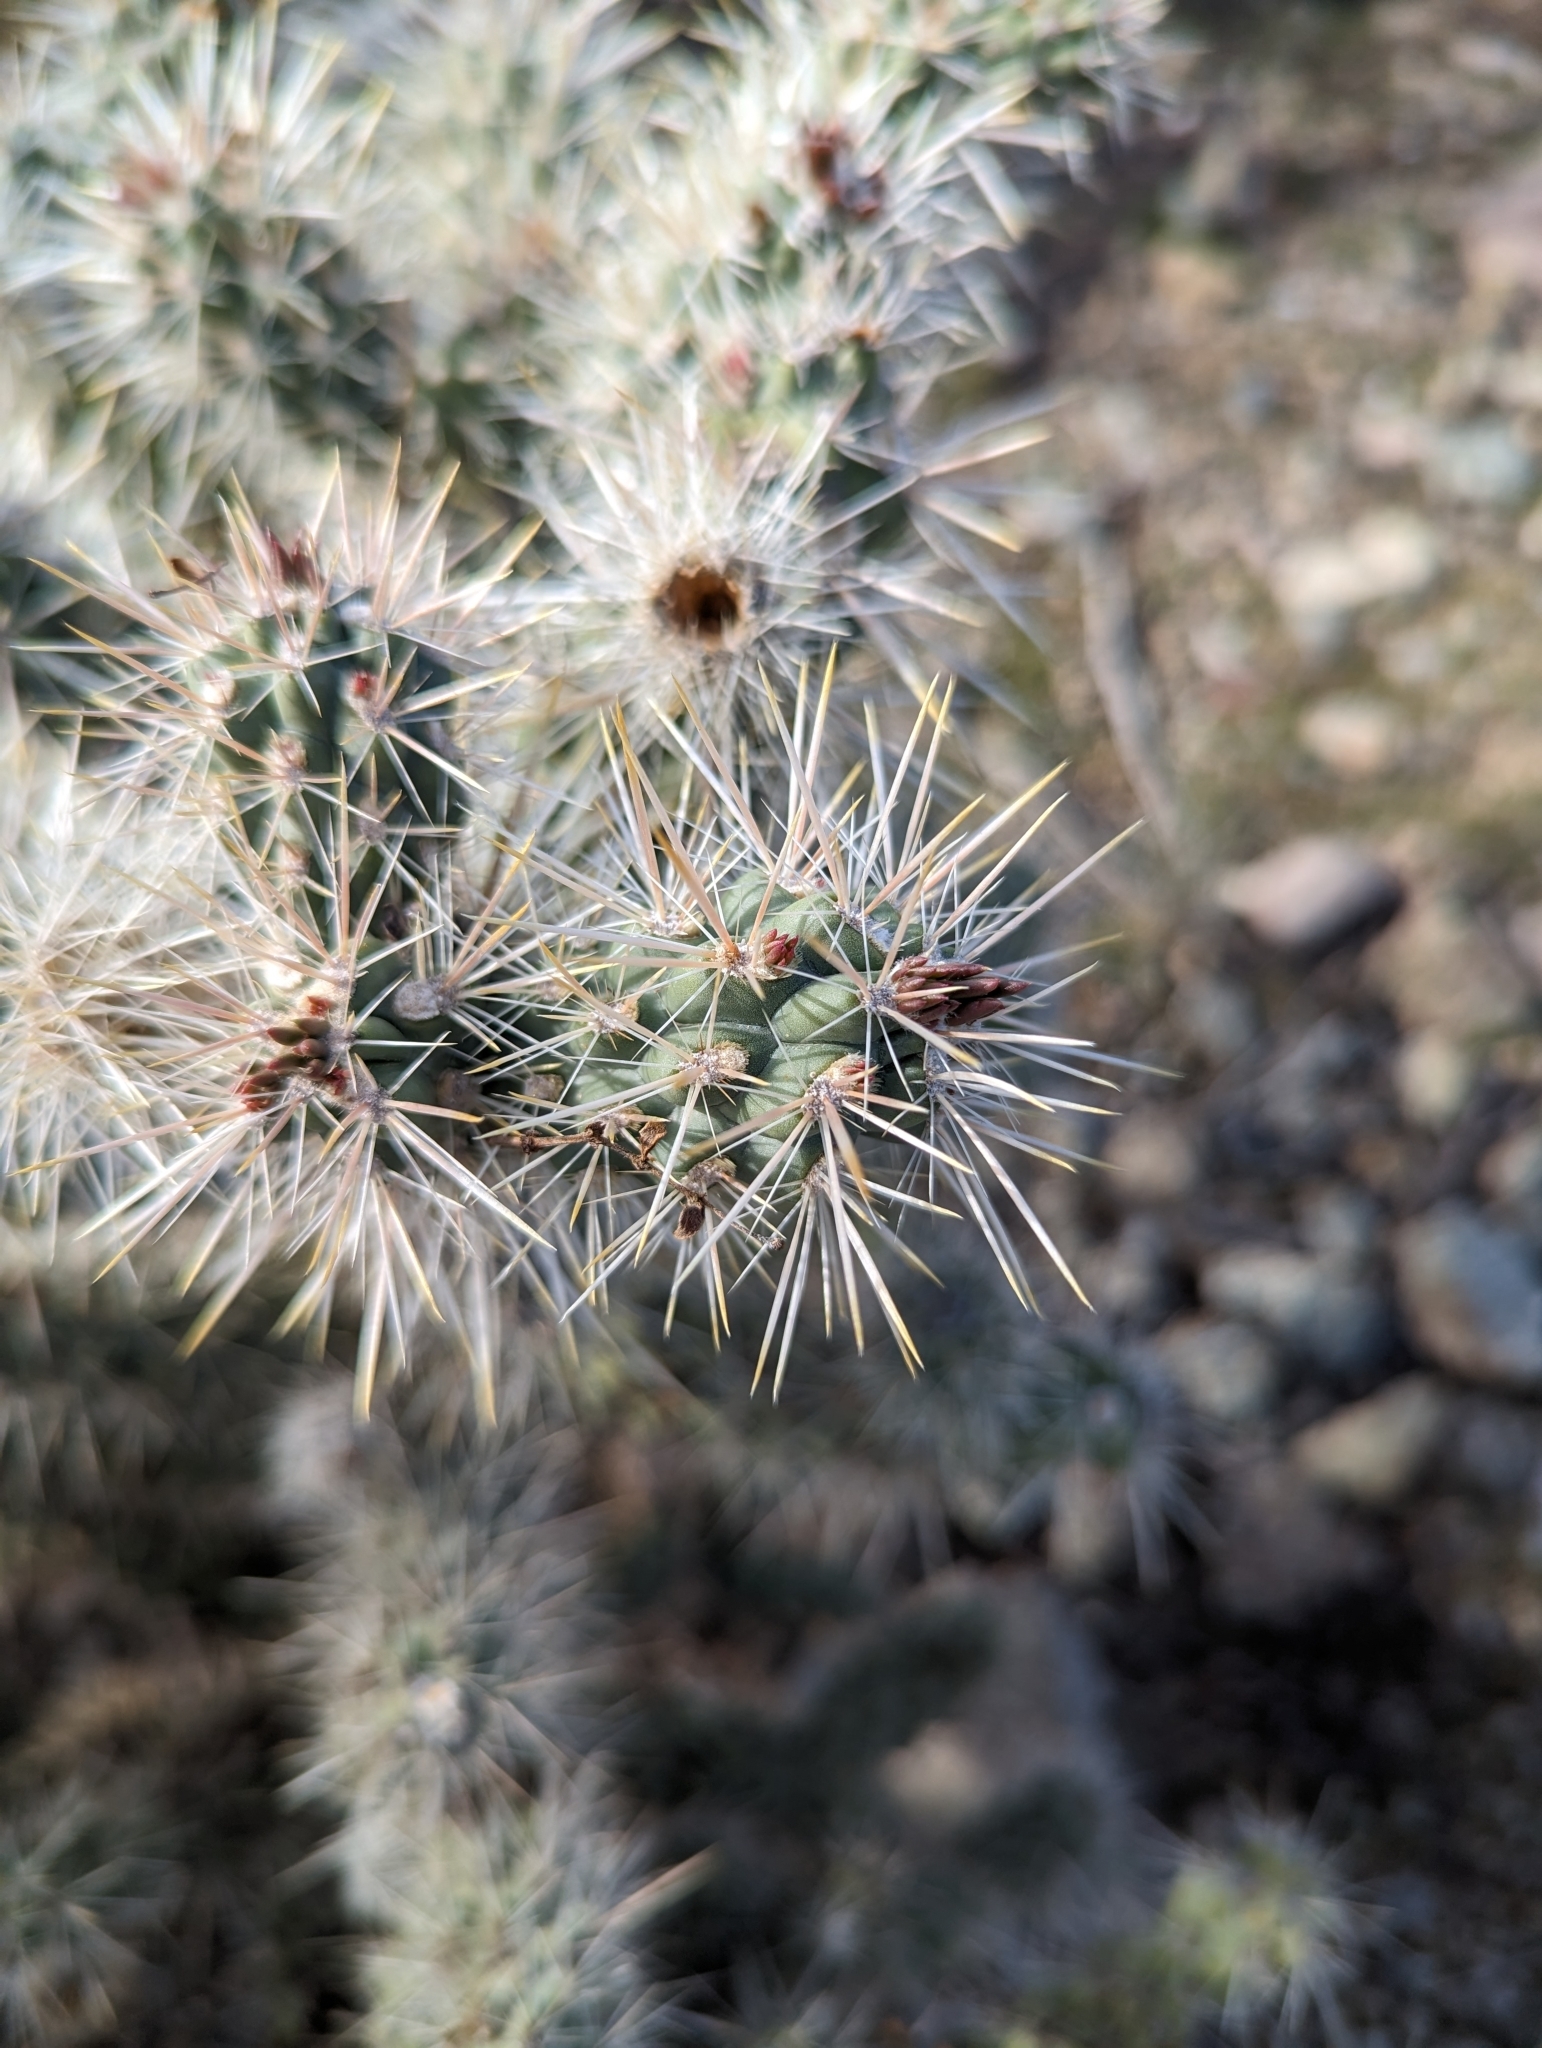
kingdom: Plantae
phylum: Tracheophyta
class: Magnoliopsida
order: Caryophyllales
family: Cactaceae
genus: Cylindropuntia
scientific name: Cylindropuntia echinocarpa
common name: Ground cholla
